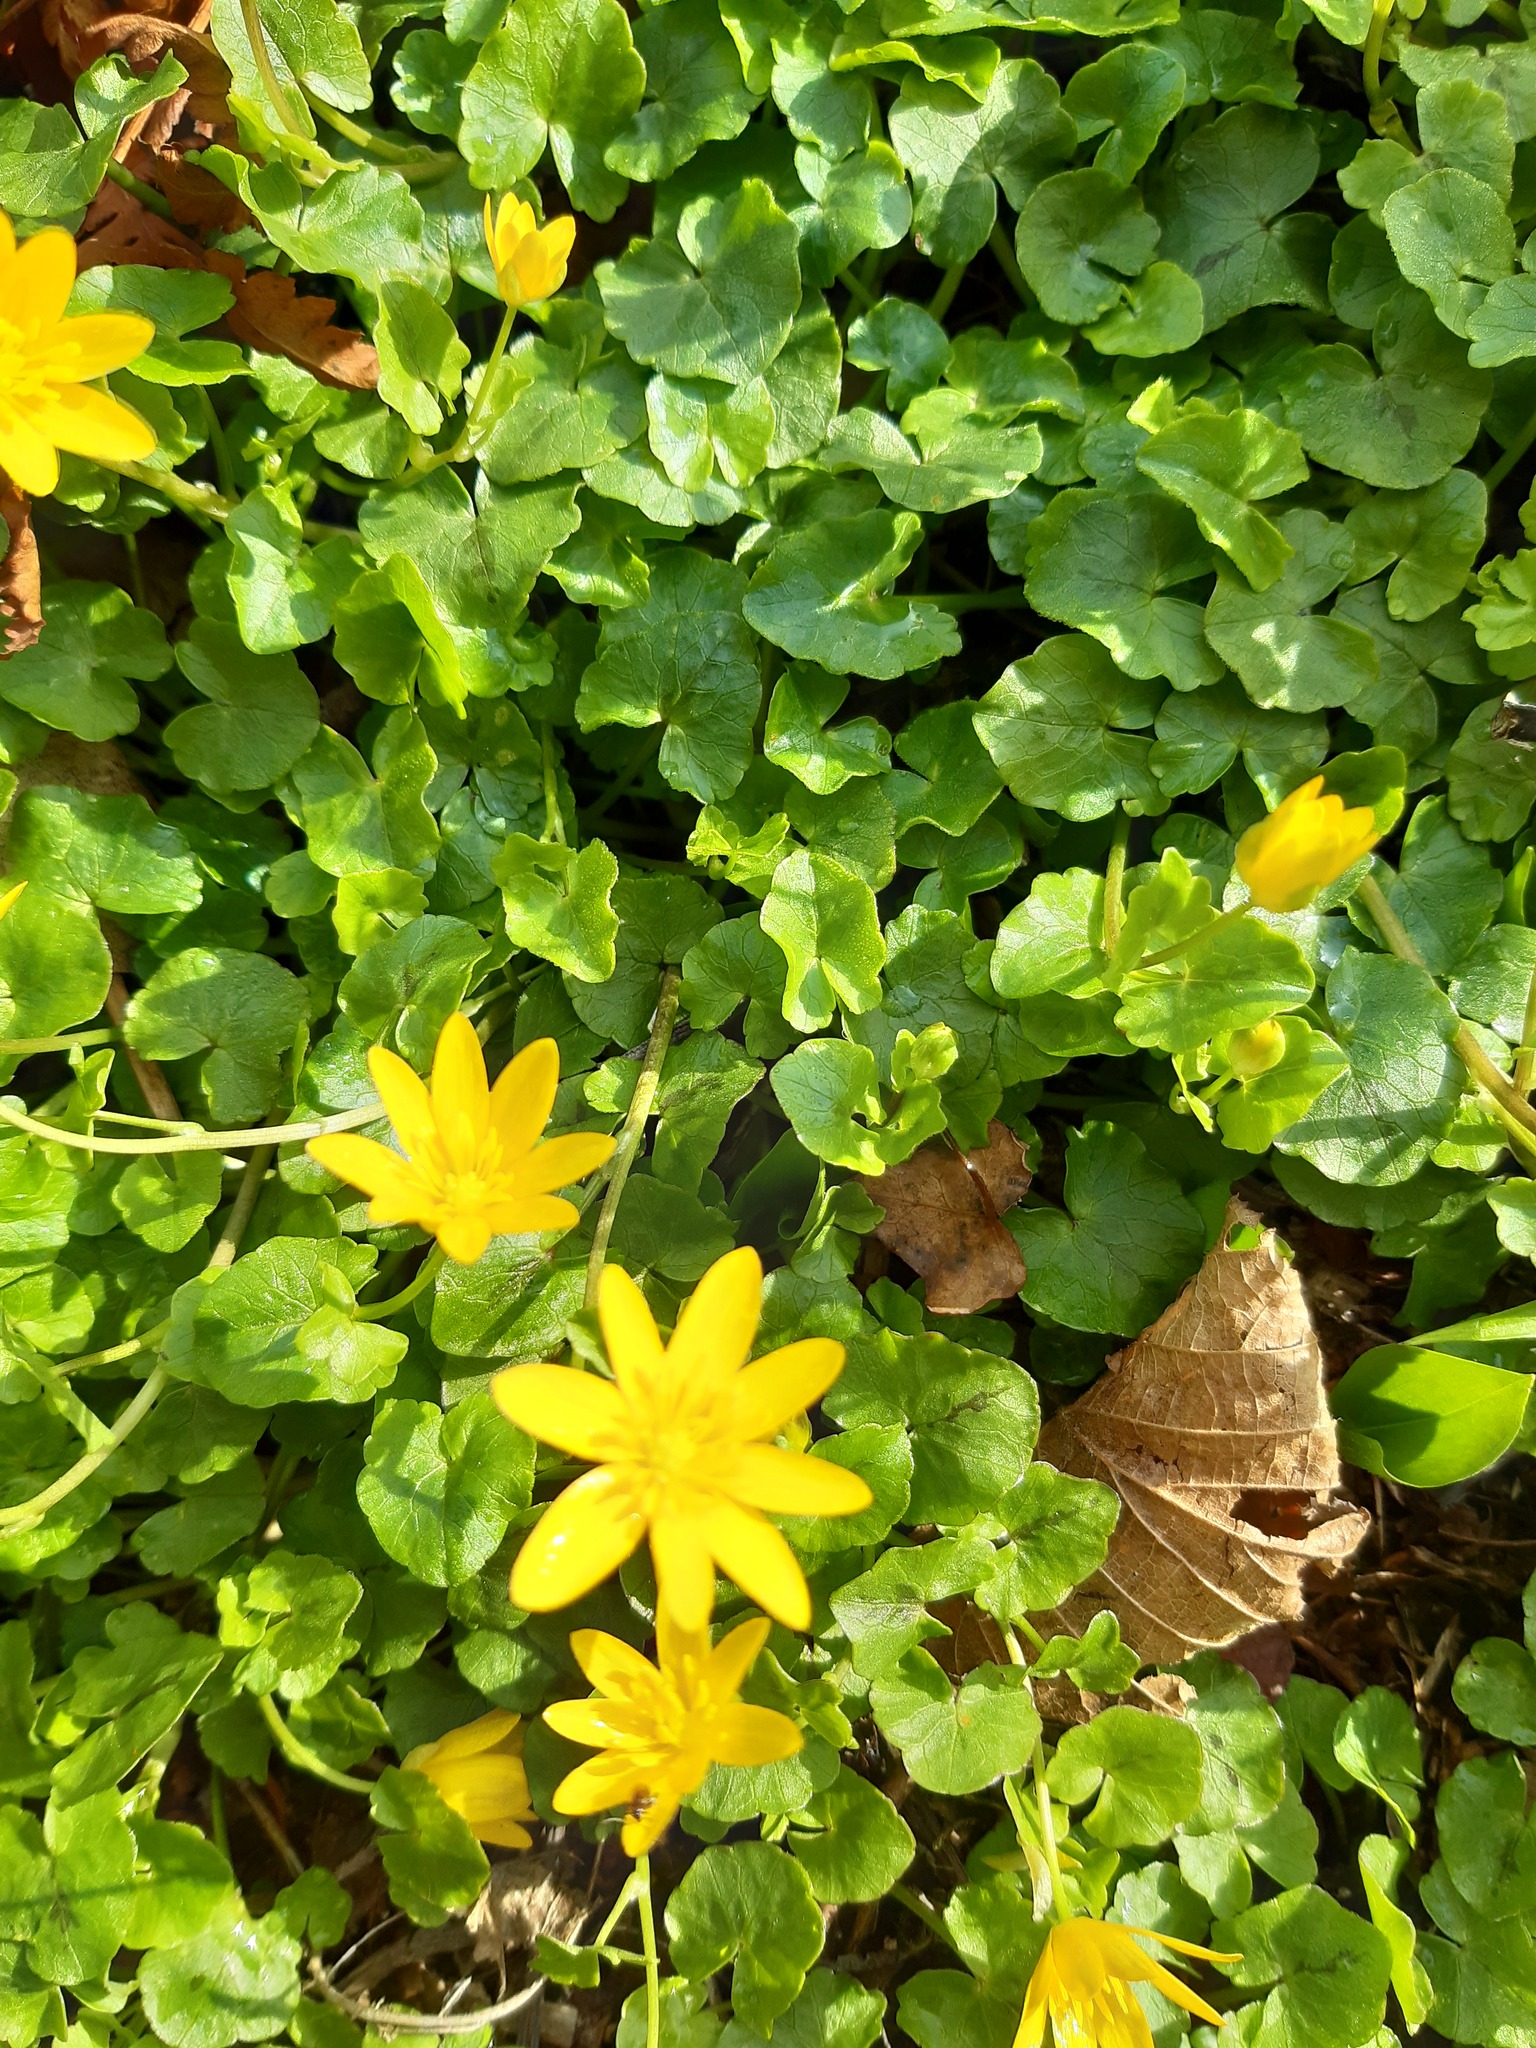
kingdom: Plantae
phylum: Tracheophyta
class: Magnoliopsida
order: Ranunculales
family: Ranunculaceae
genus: Ficaria
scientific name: Ficaria verna
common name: Lesser celandine
